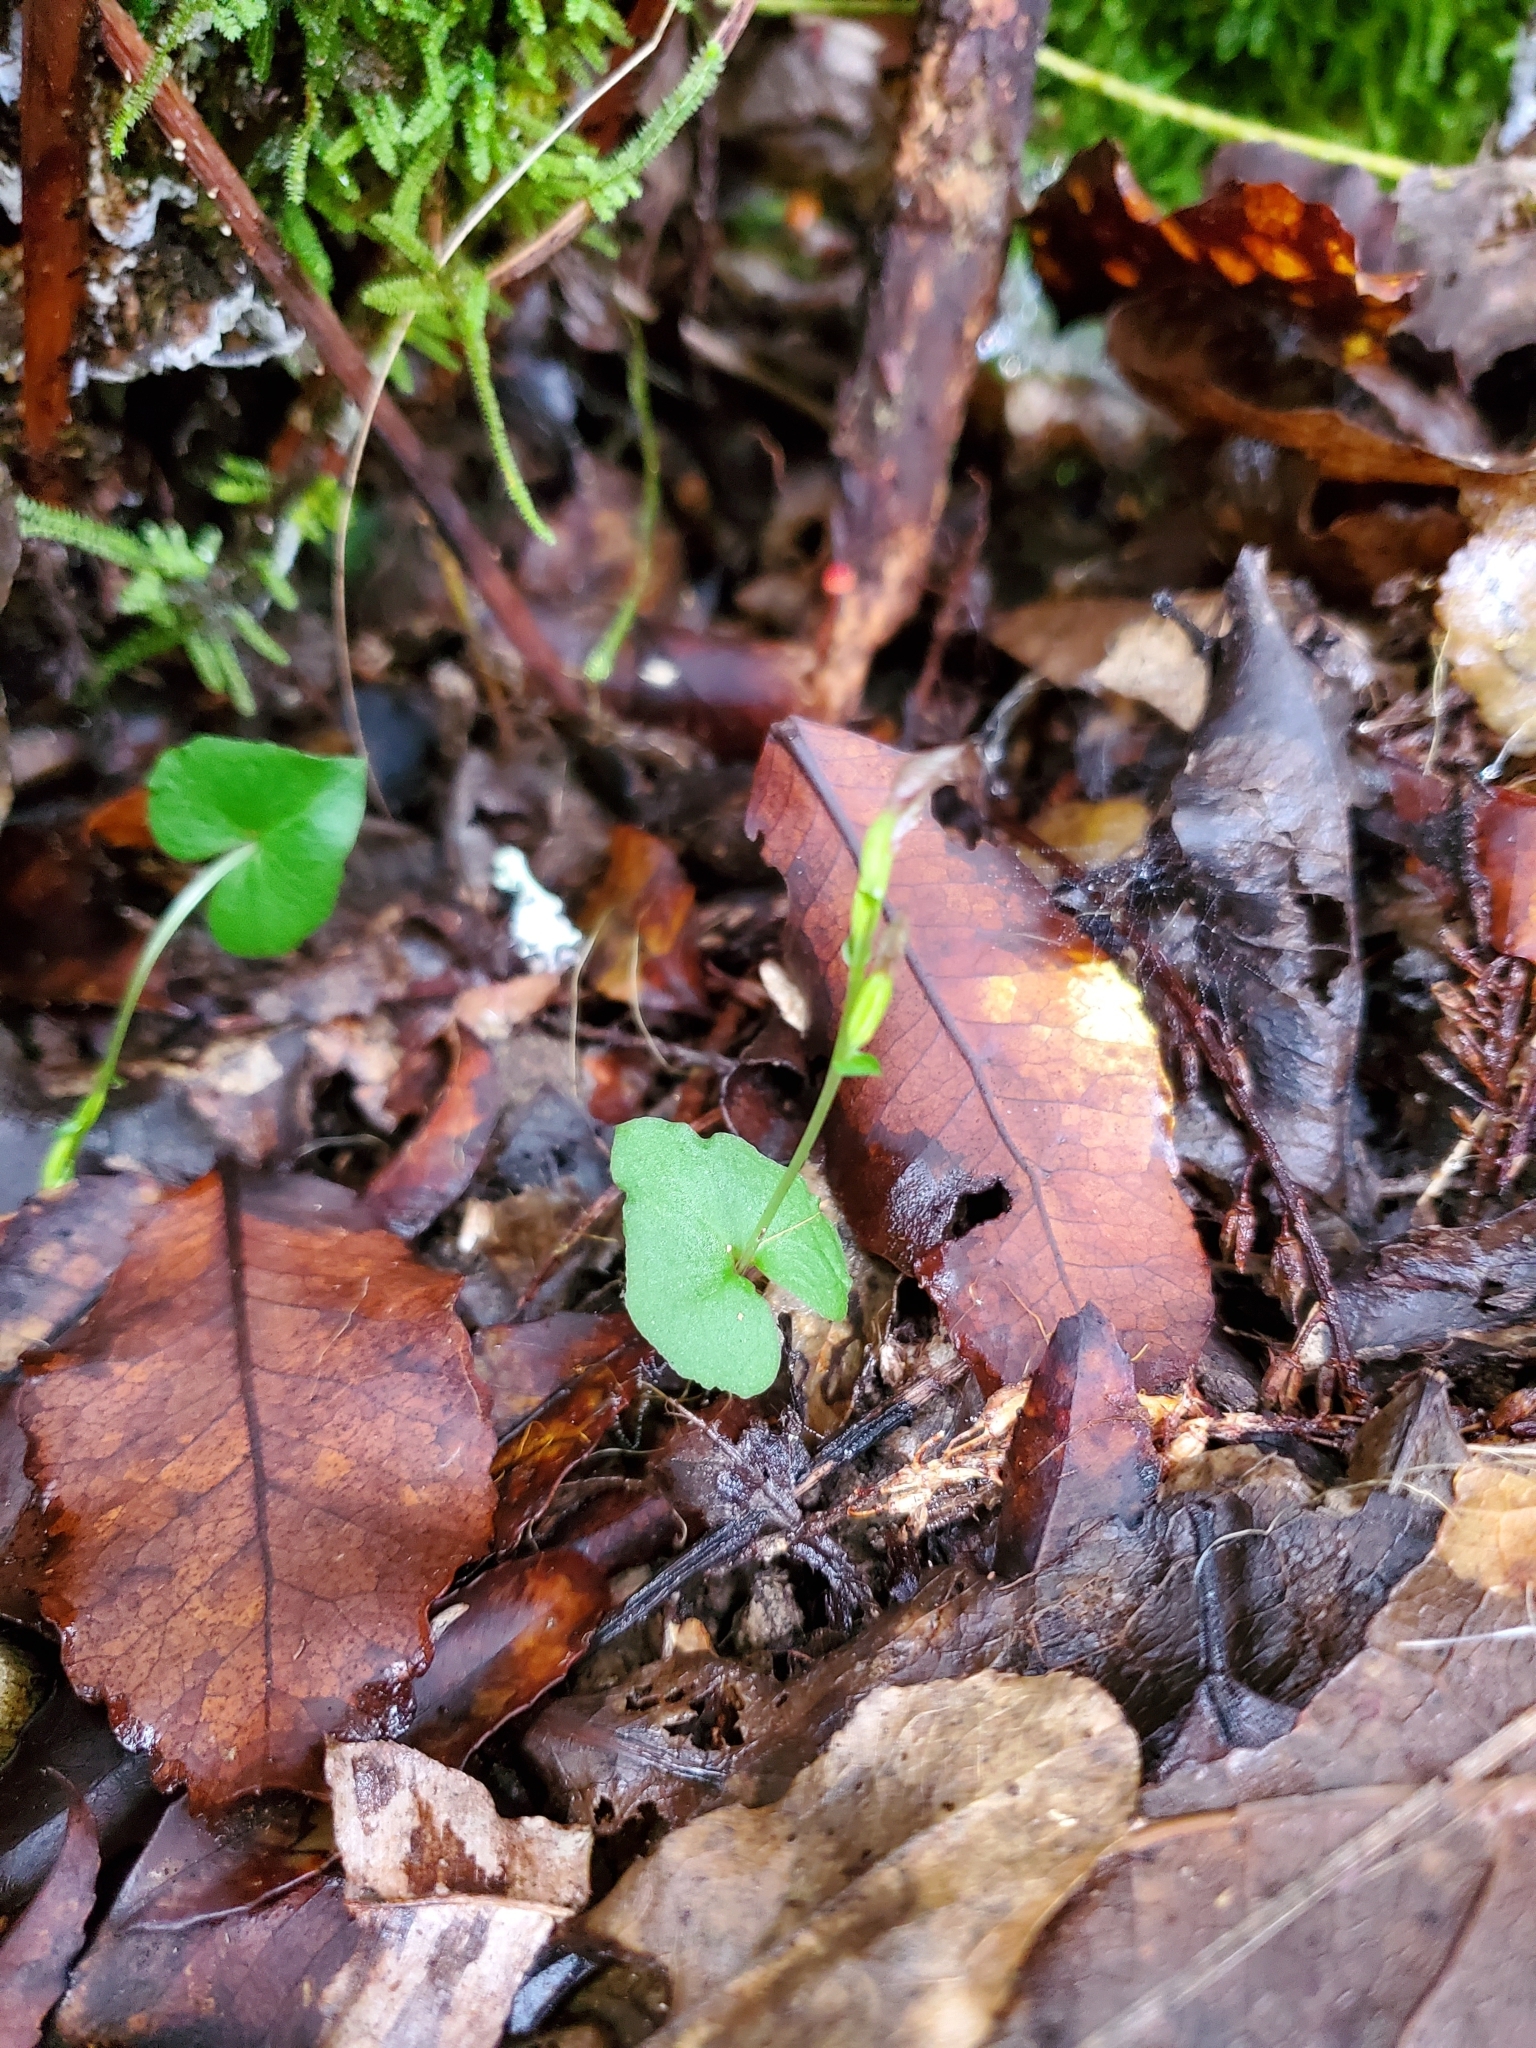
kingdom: Plantae
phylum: Tracheophyta
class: Liliopsida
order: Asparagales
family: Orchidaceae
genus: Acianthus
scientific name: Acianthus sinclairii
